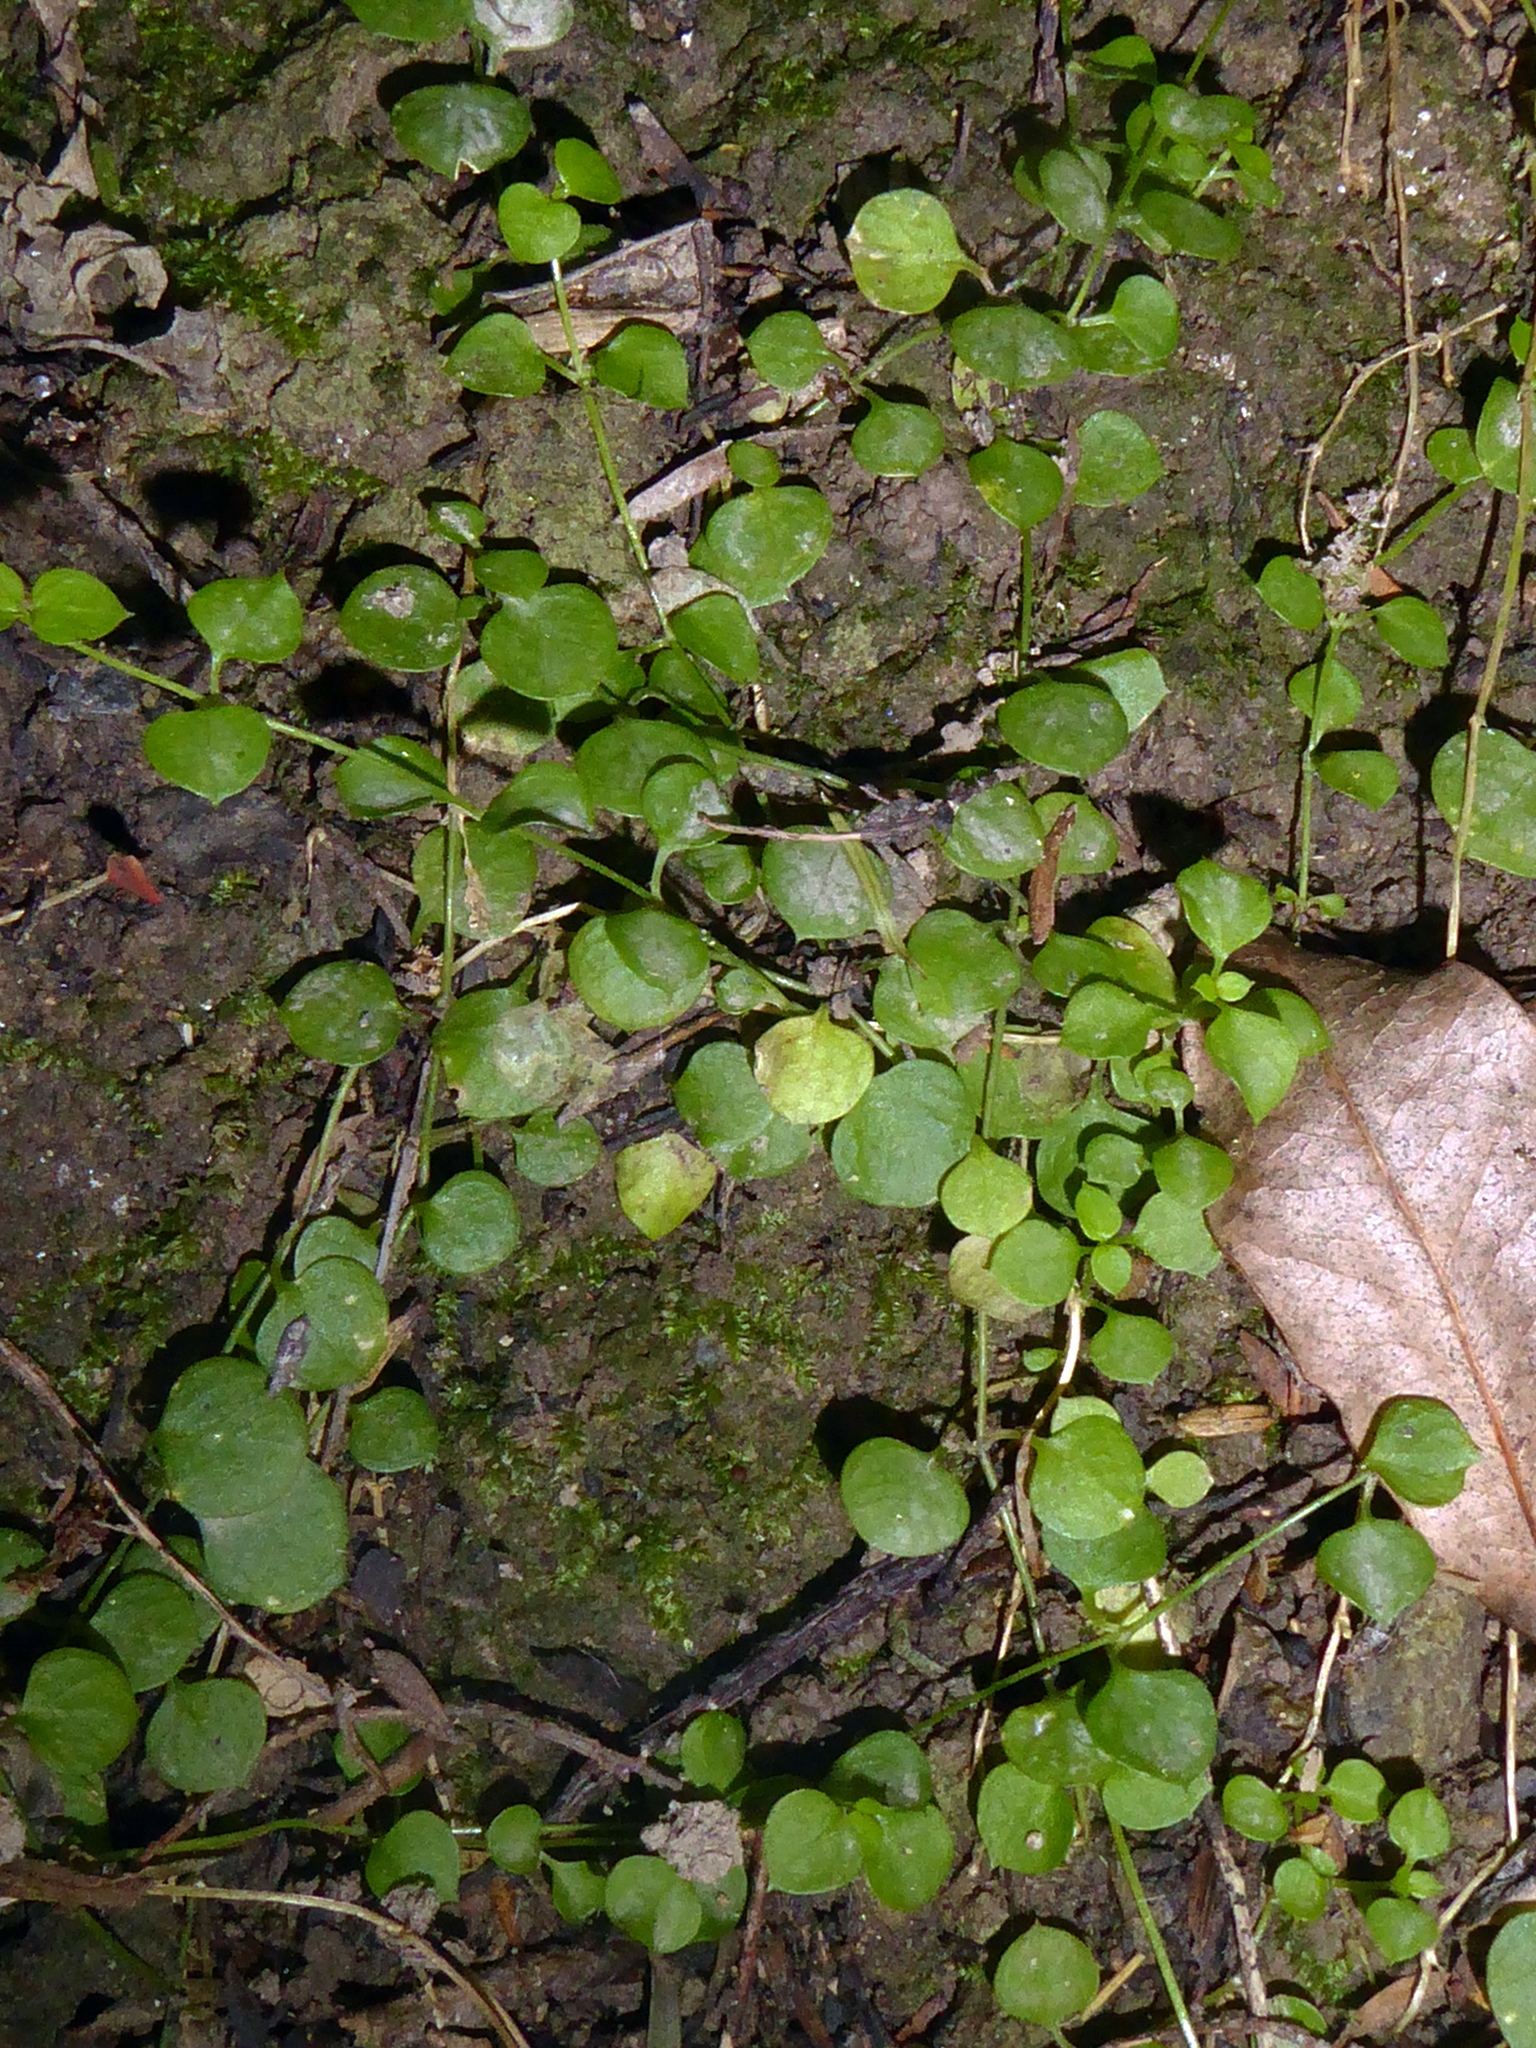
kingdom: Plantae
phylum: Tracheophyta
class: Magnoliopsida
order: Caryophyllales
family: Caryophyllaceae
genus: Stellaria
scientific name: Stellaria parviflora
